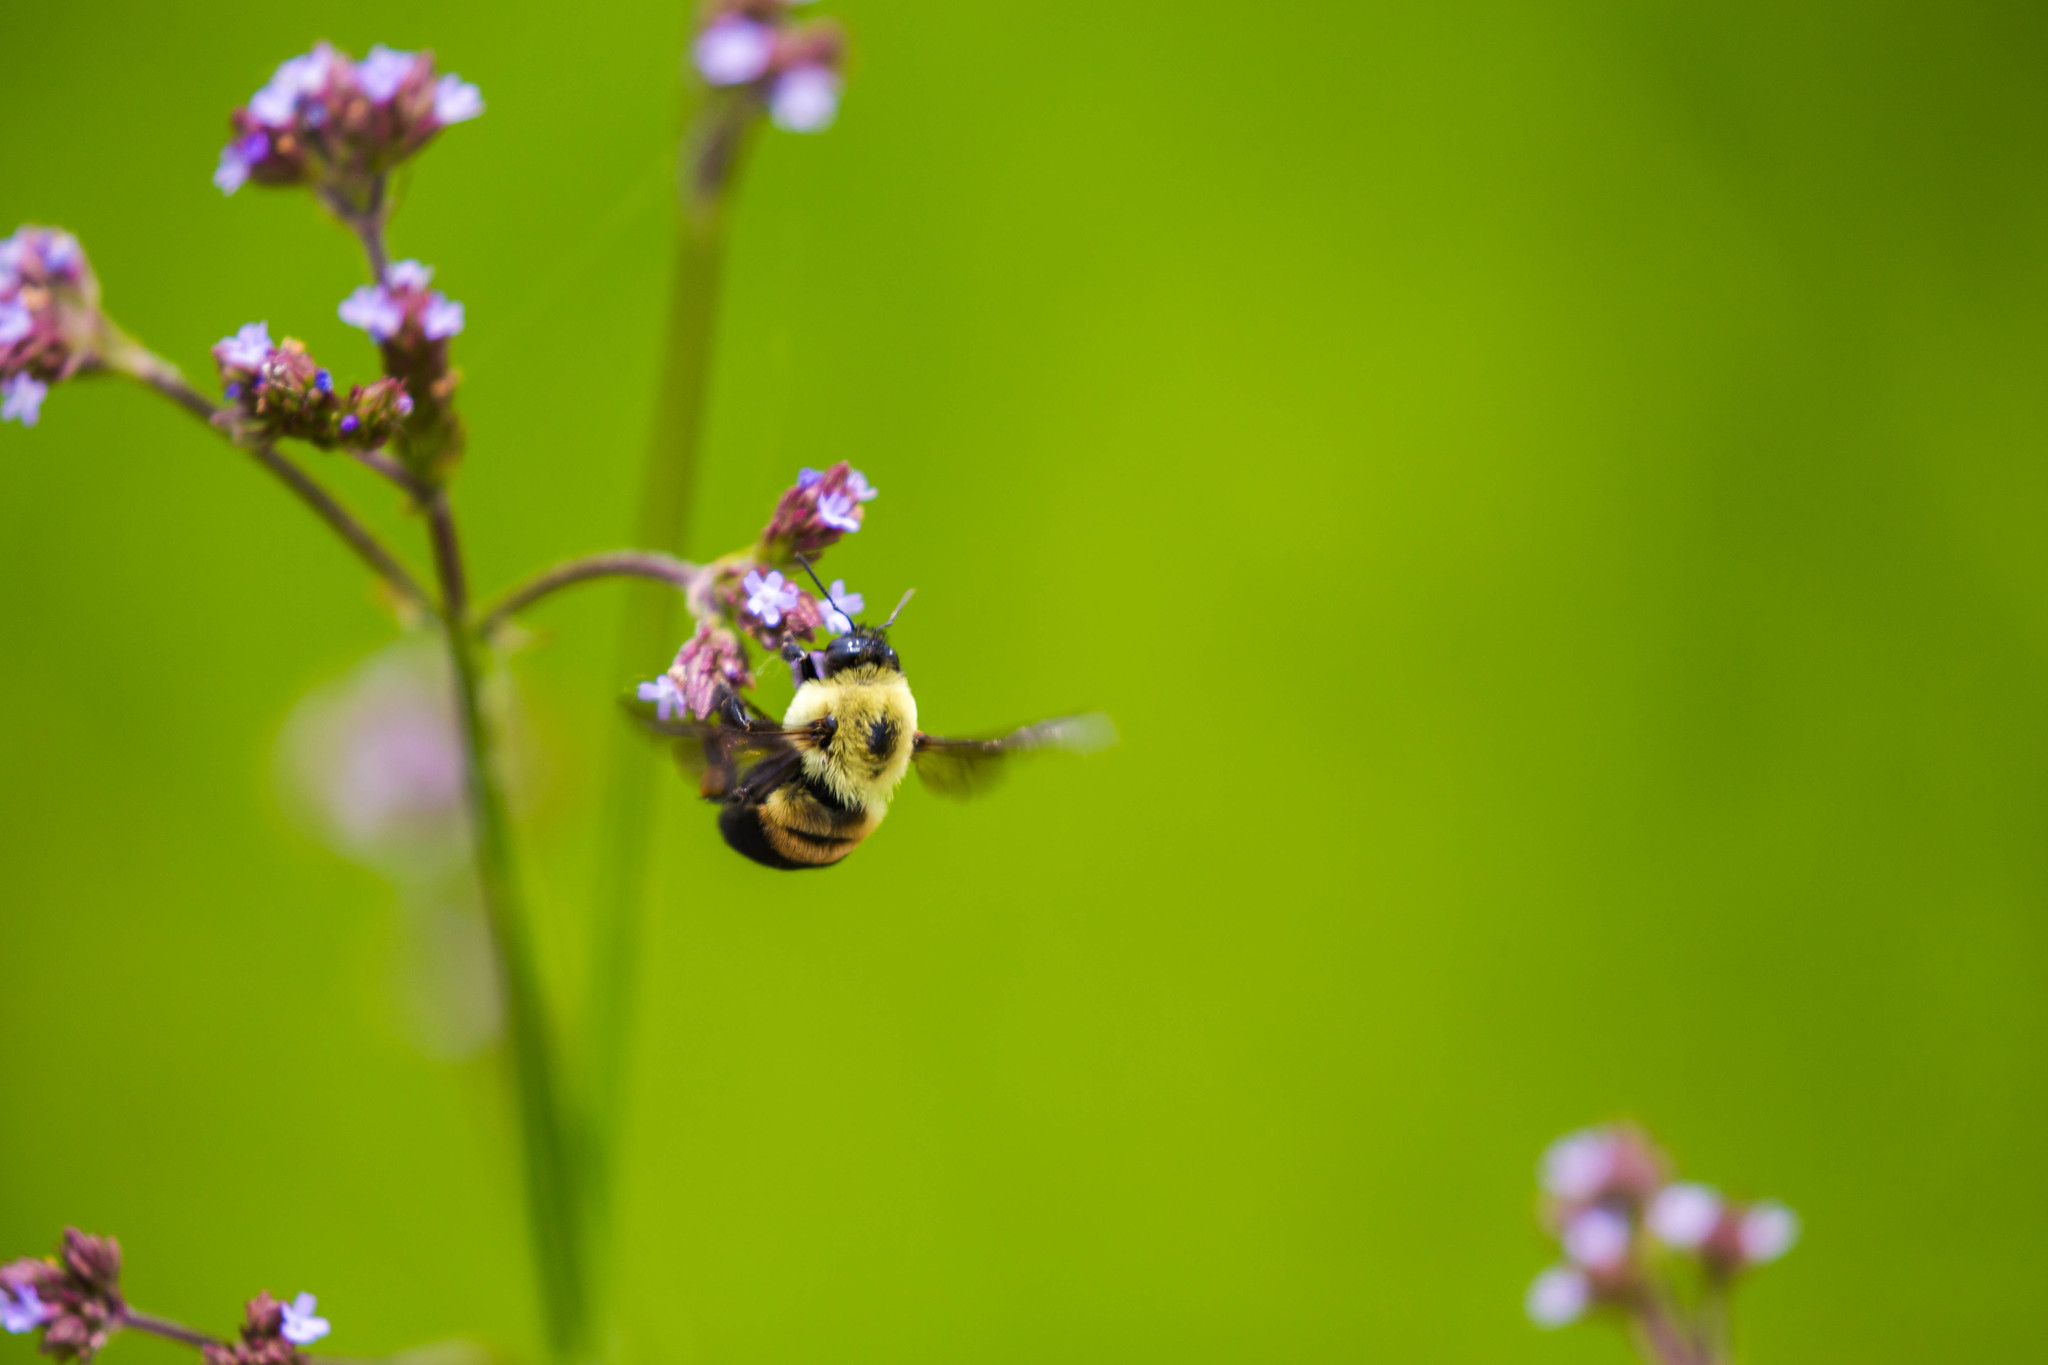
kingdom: Animalia
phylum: Arthropoda
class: Insecta
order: Hymenoptera
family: Apidae
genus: Bombus
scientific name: Bombus griseocollis
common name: Brown-belted bumble bee
